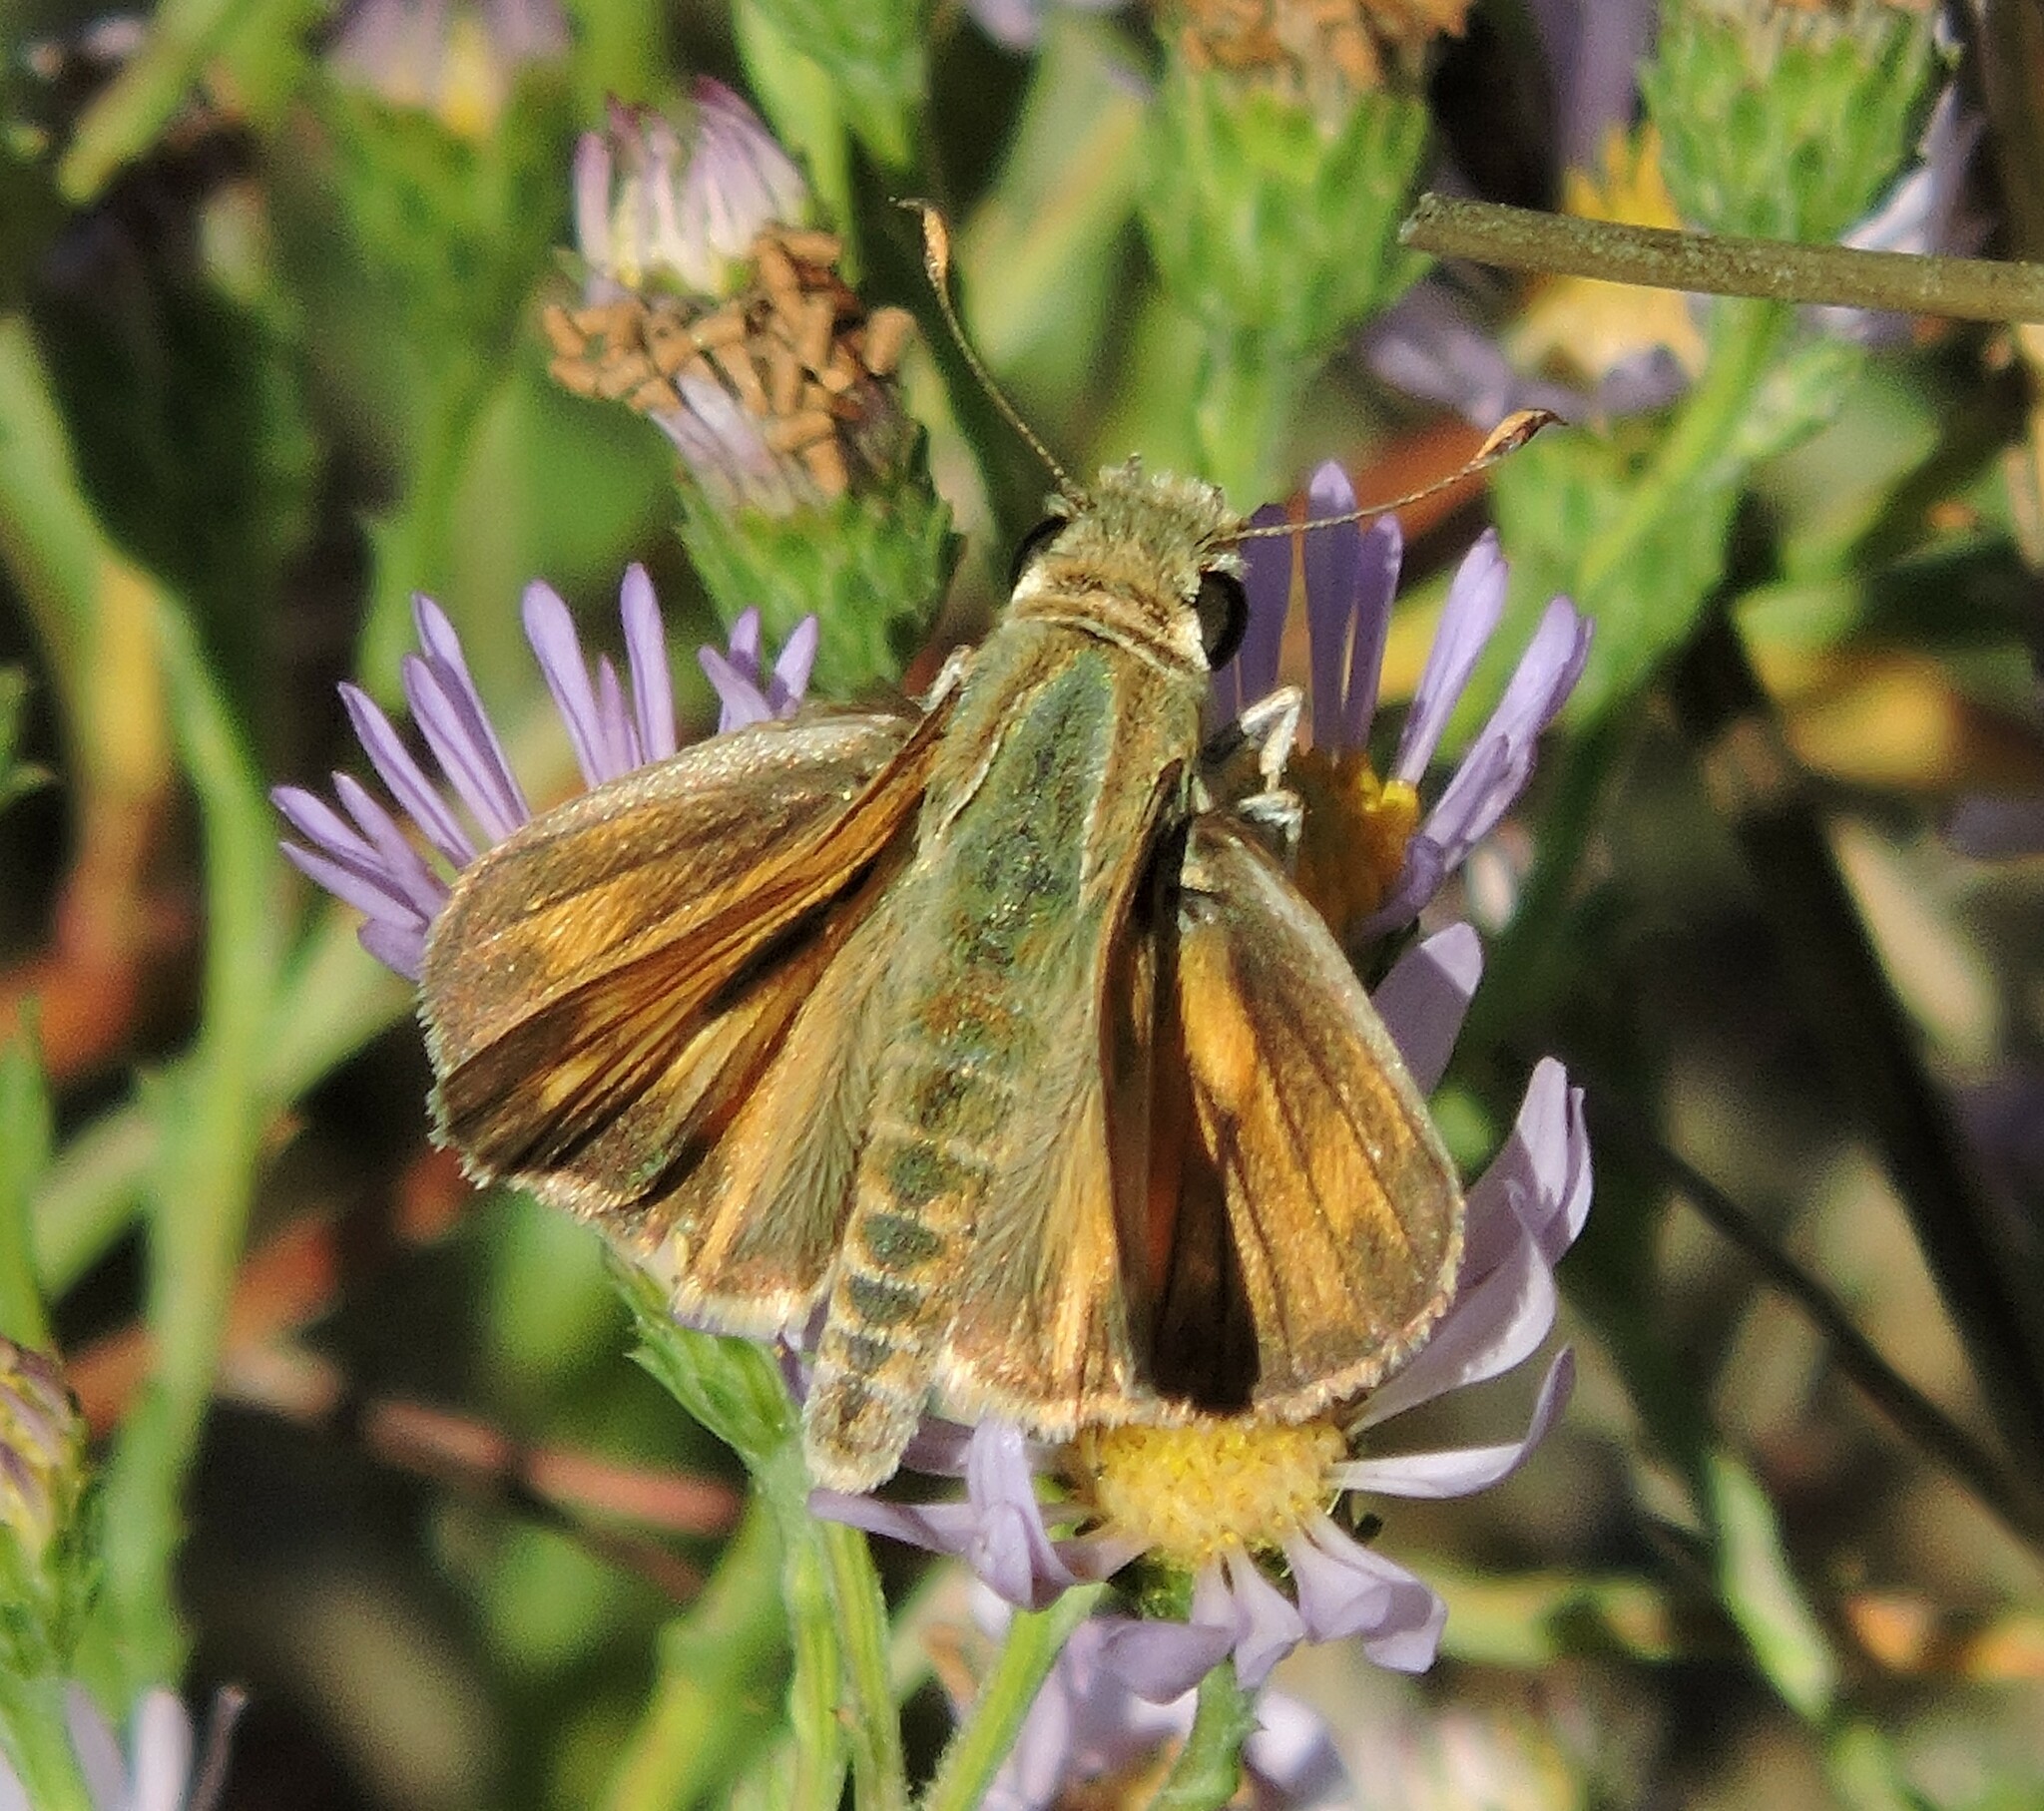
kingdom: Animalia
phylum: Arthropoda
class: Insecta
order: Lepidoptera
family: Hesperiidae
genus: Atalopedes
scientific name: Atalopedes campestris
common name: Sachem
